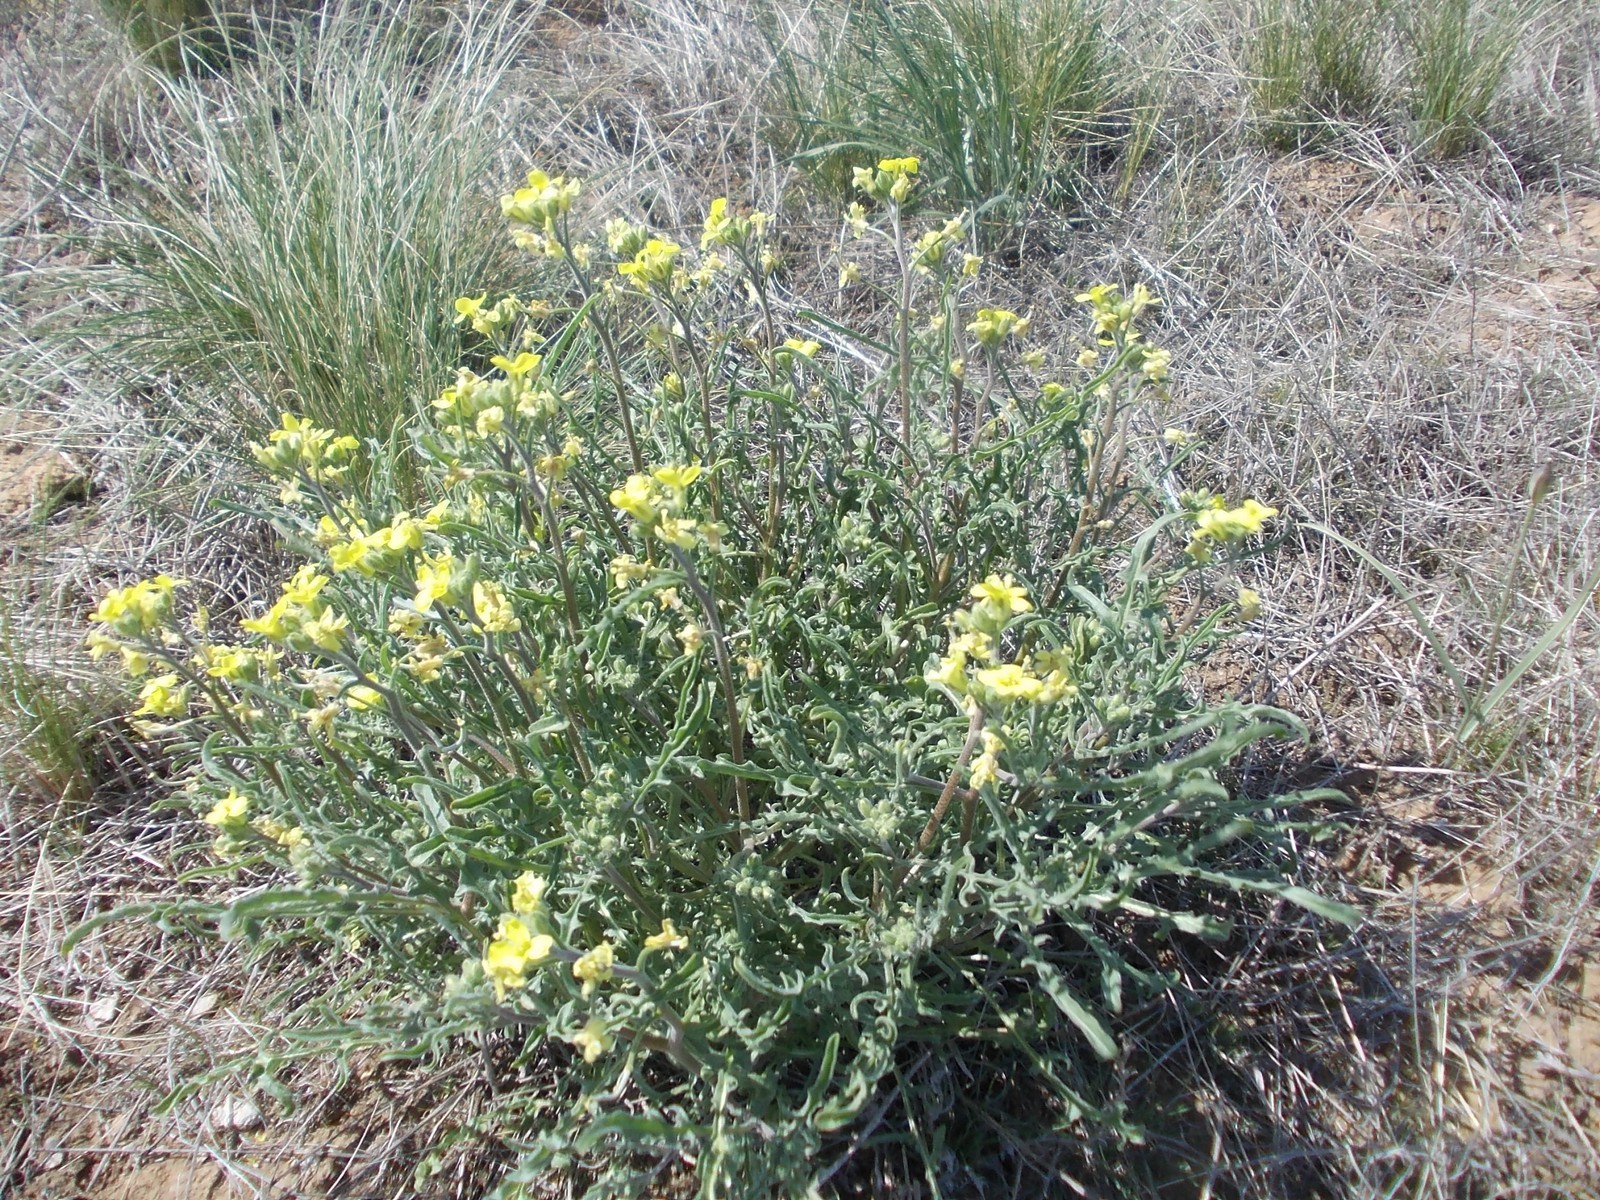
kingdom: Plantae
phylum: Tracheophyta
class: Magnoliopsida
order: Brassicales
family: Brassicaceae
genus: Sterigmostemum
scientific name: Sterigmostemum caspicum
